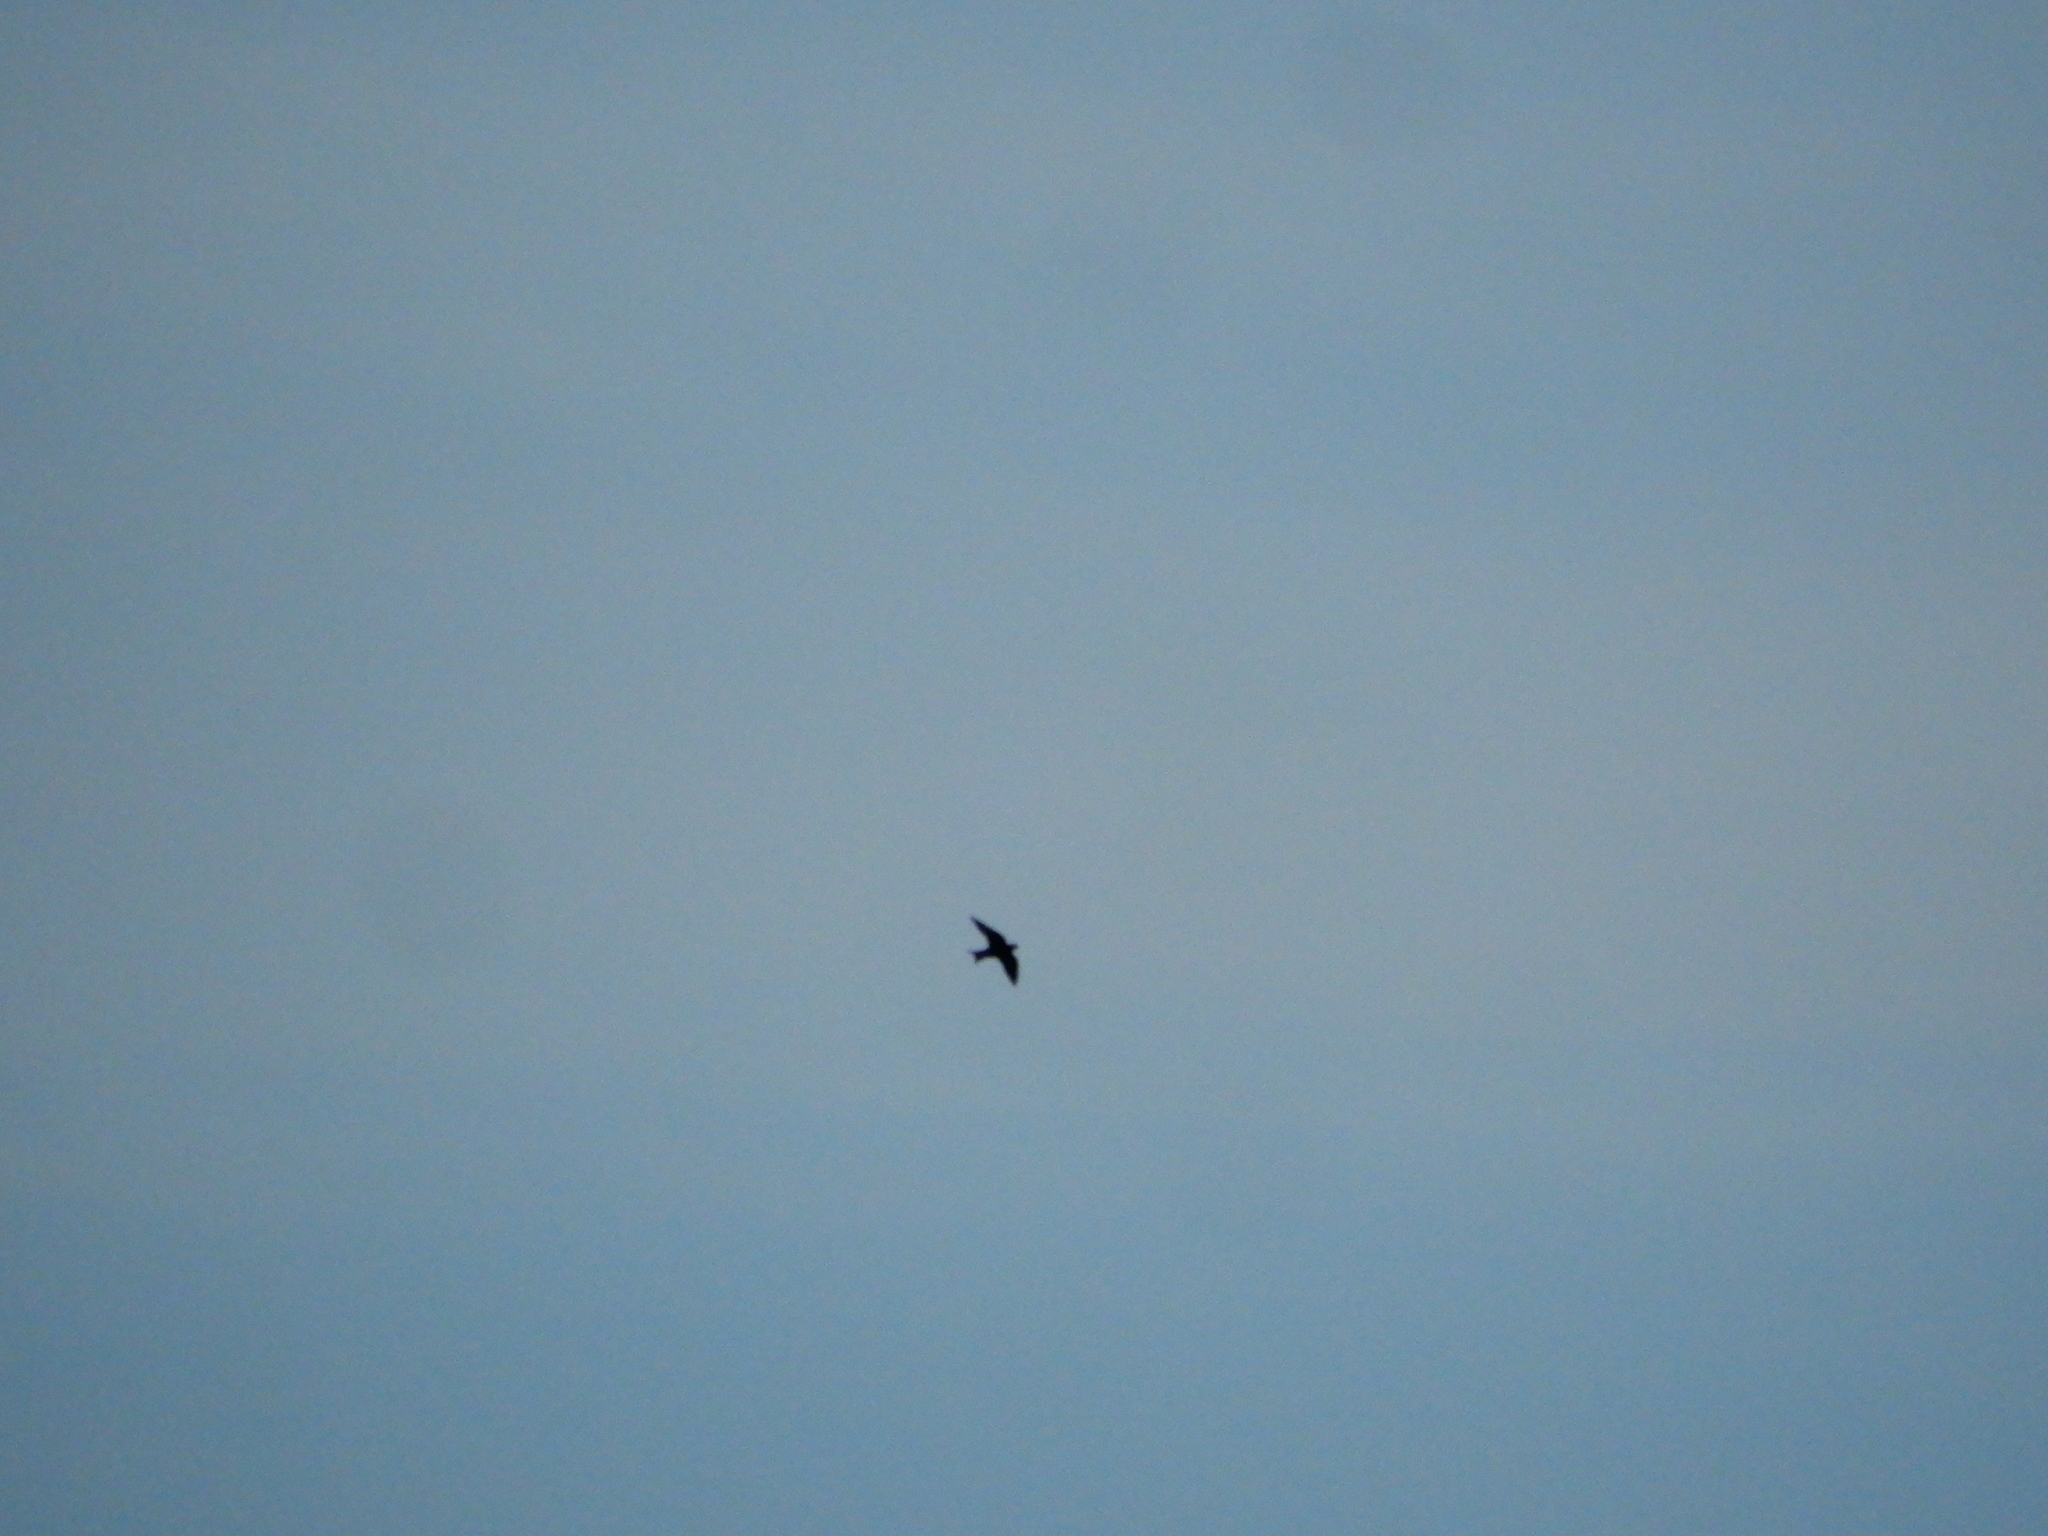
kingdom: Animalia
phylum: Chordata
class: Aves
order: Passeriformes
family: Hirundinidae
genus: Progne
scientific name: Progne subis
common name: Purple martin
